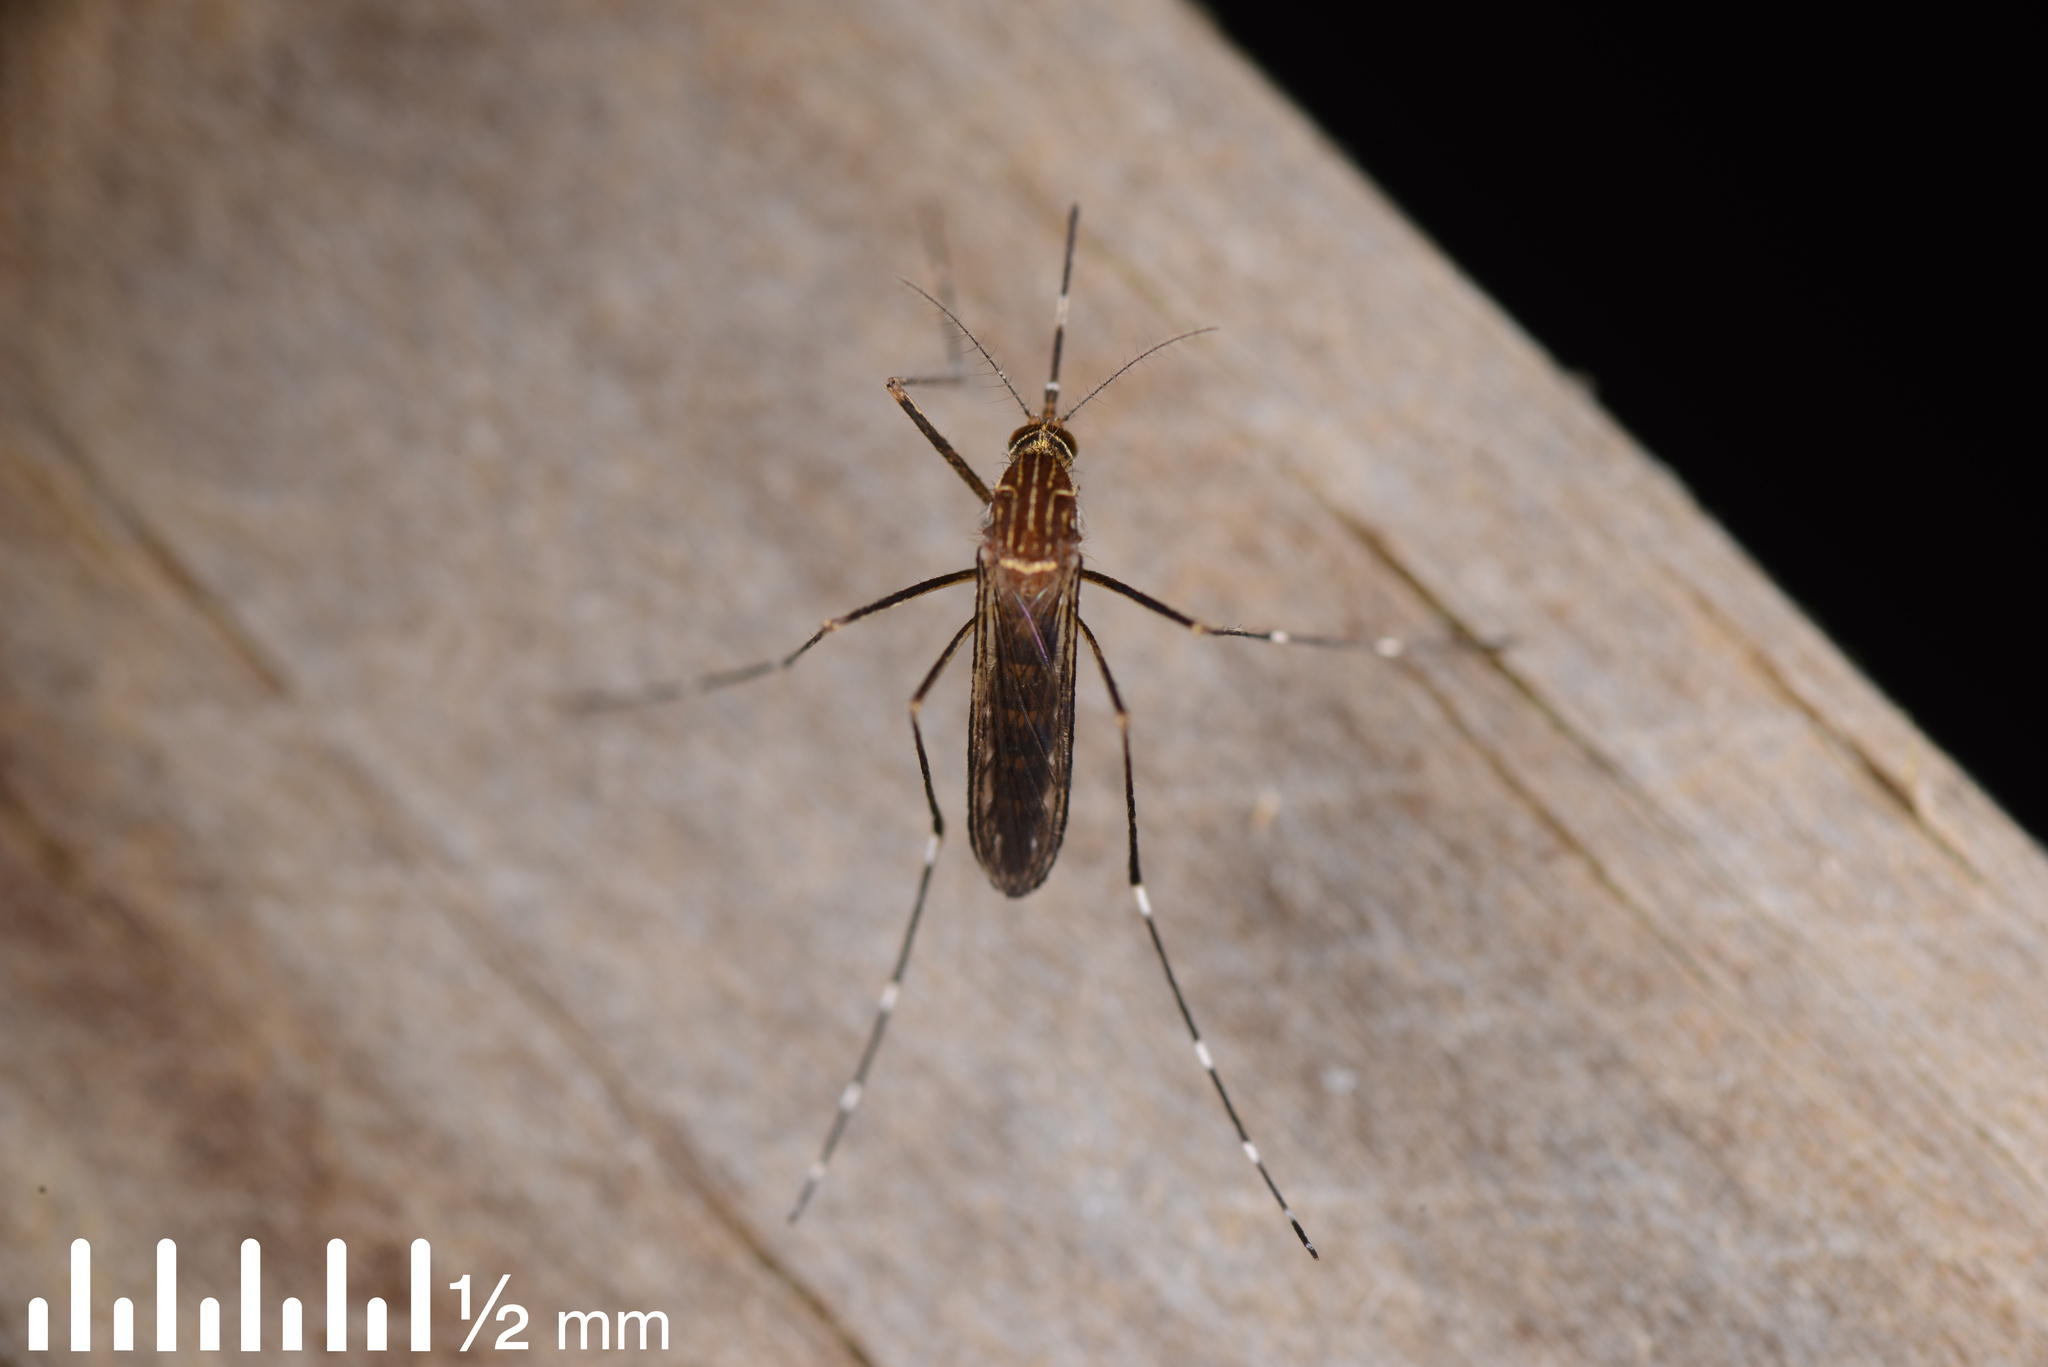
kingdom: Animalia
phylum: Arthropoda
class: Insecta
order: Diptera
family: Culicidae
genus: Aedes
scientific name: Aedes notoscriptus
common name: Australian backyard mosquito
